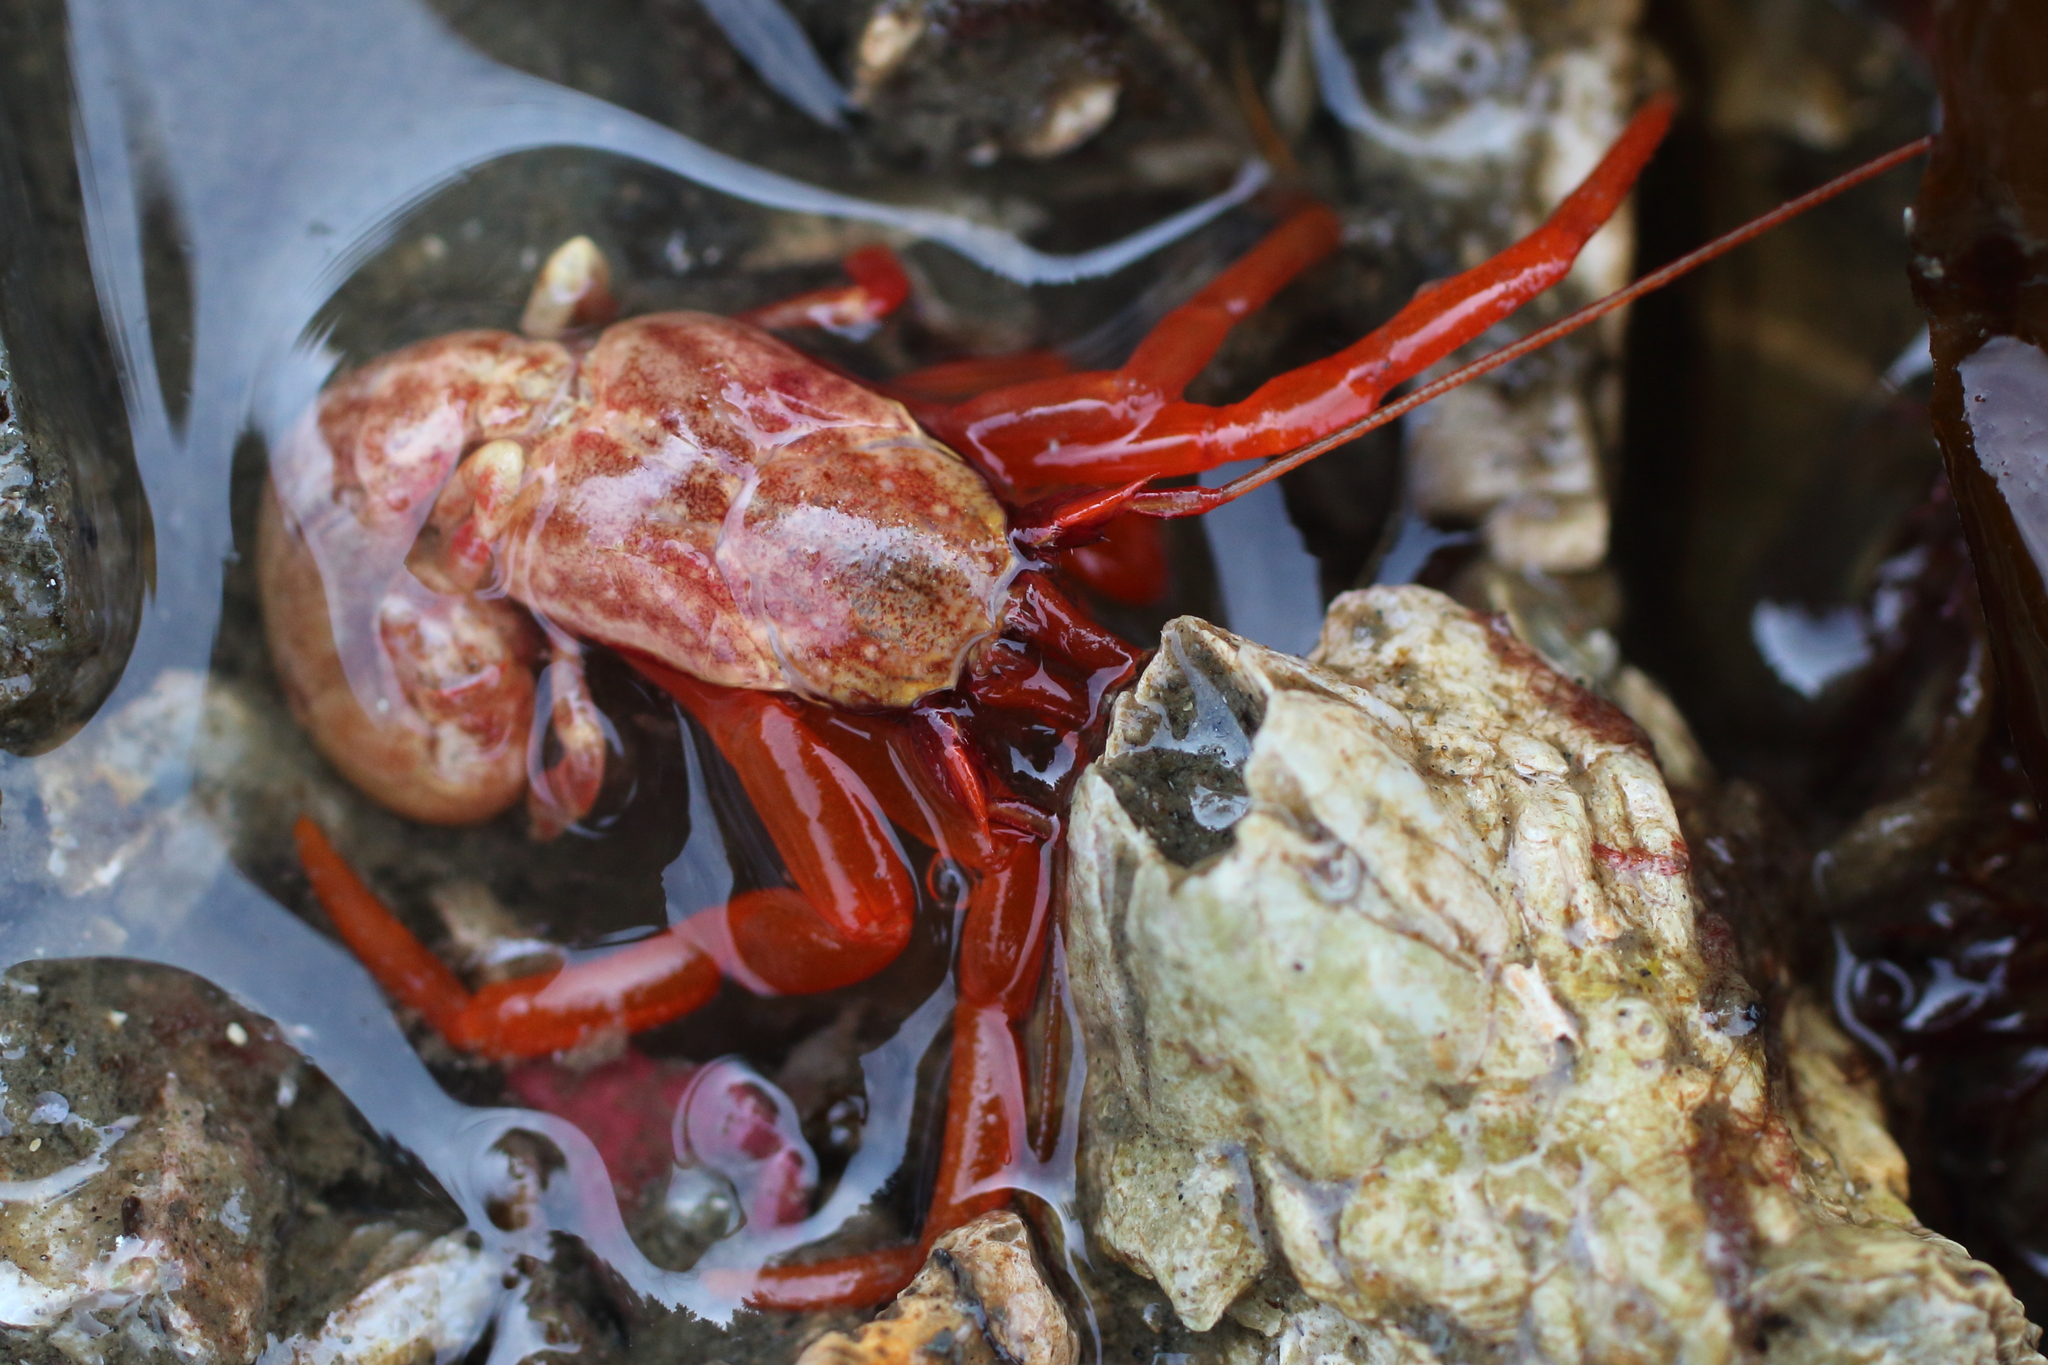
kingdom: Animalia
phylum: Arthropoda
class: Malacostraca
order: Decapoda
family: Paguridae
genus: Elassochirus
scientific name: Elassochirus gilli
